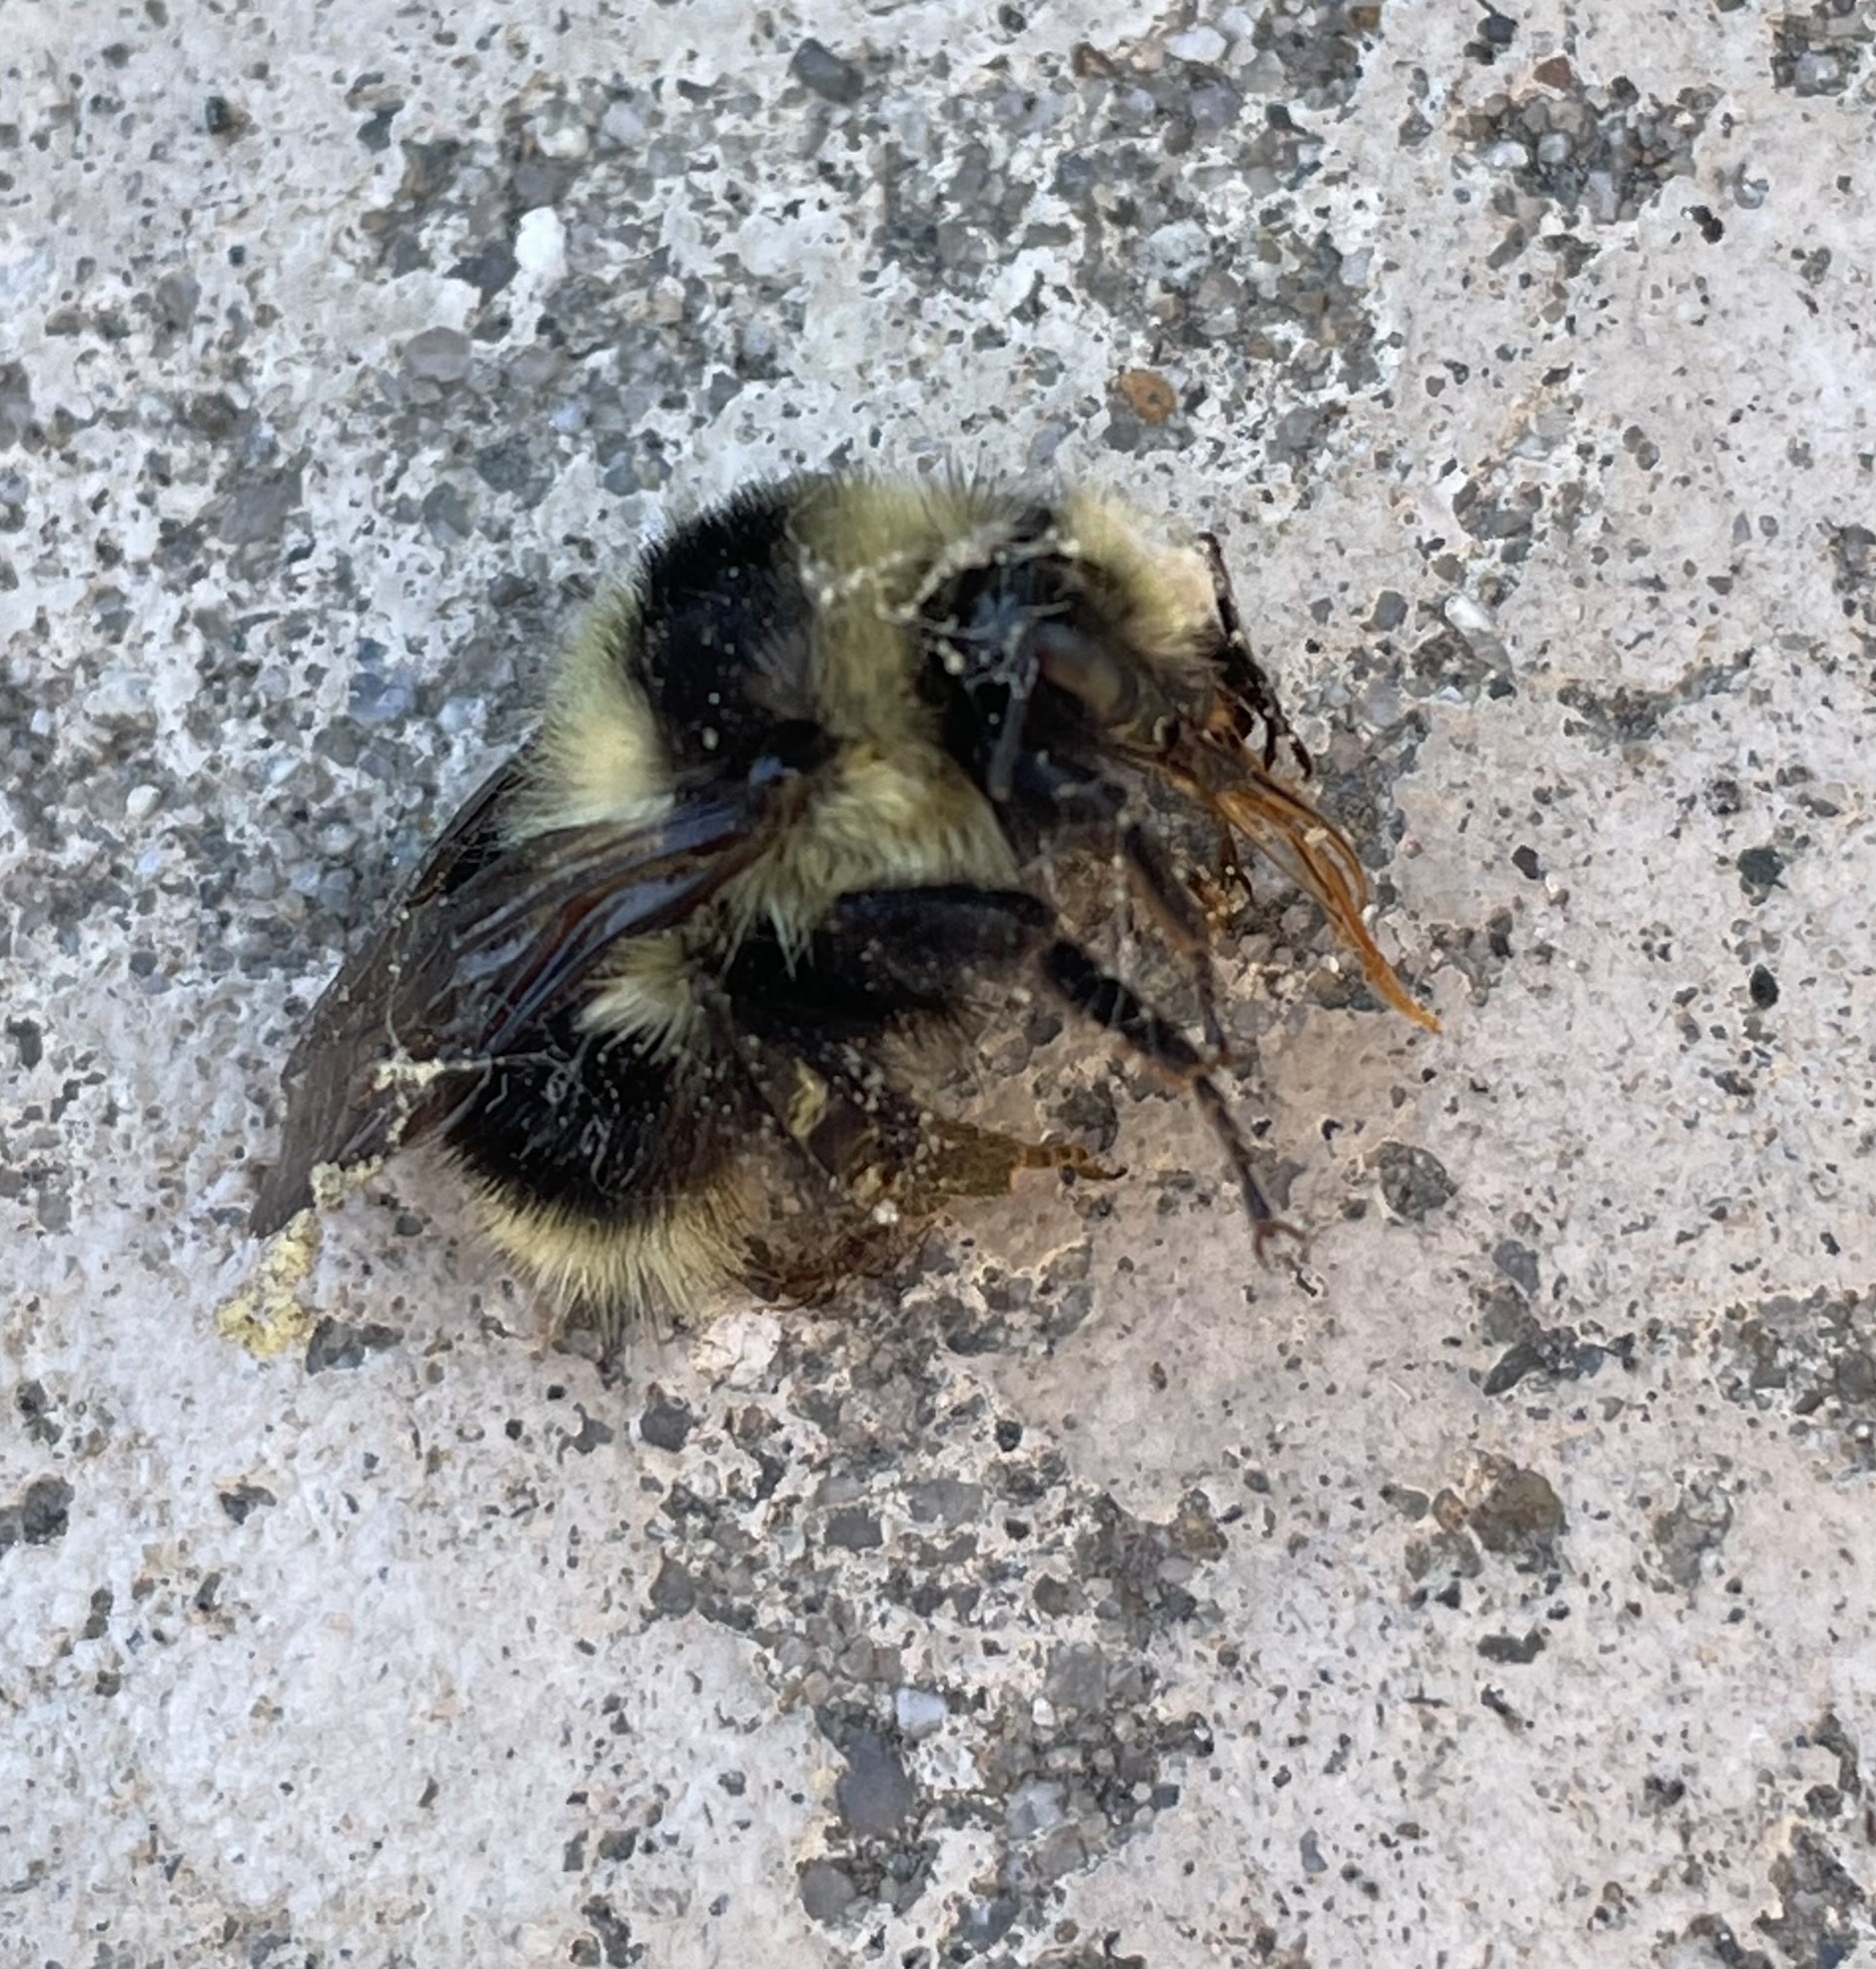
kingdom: Animalia
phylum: Arthropoda
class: Insecta
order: Hymenoptera
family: Apidae
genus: Bombus
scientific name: Bombus melanopygus
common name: Black tail bumble bee
